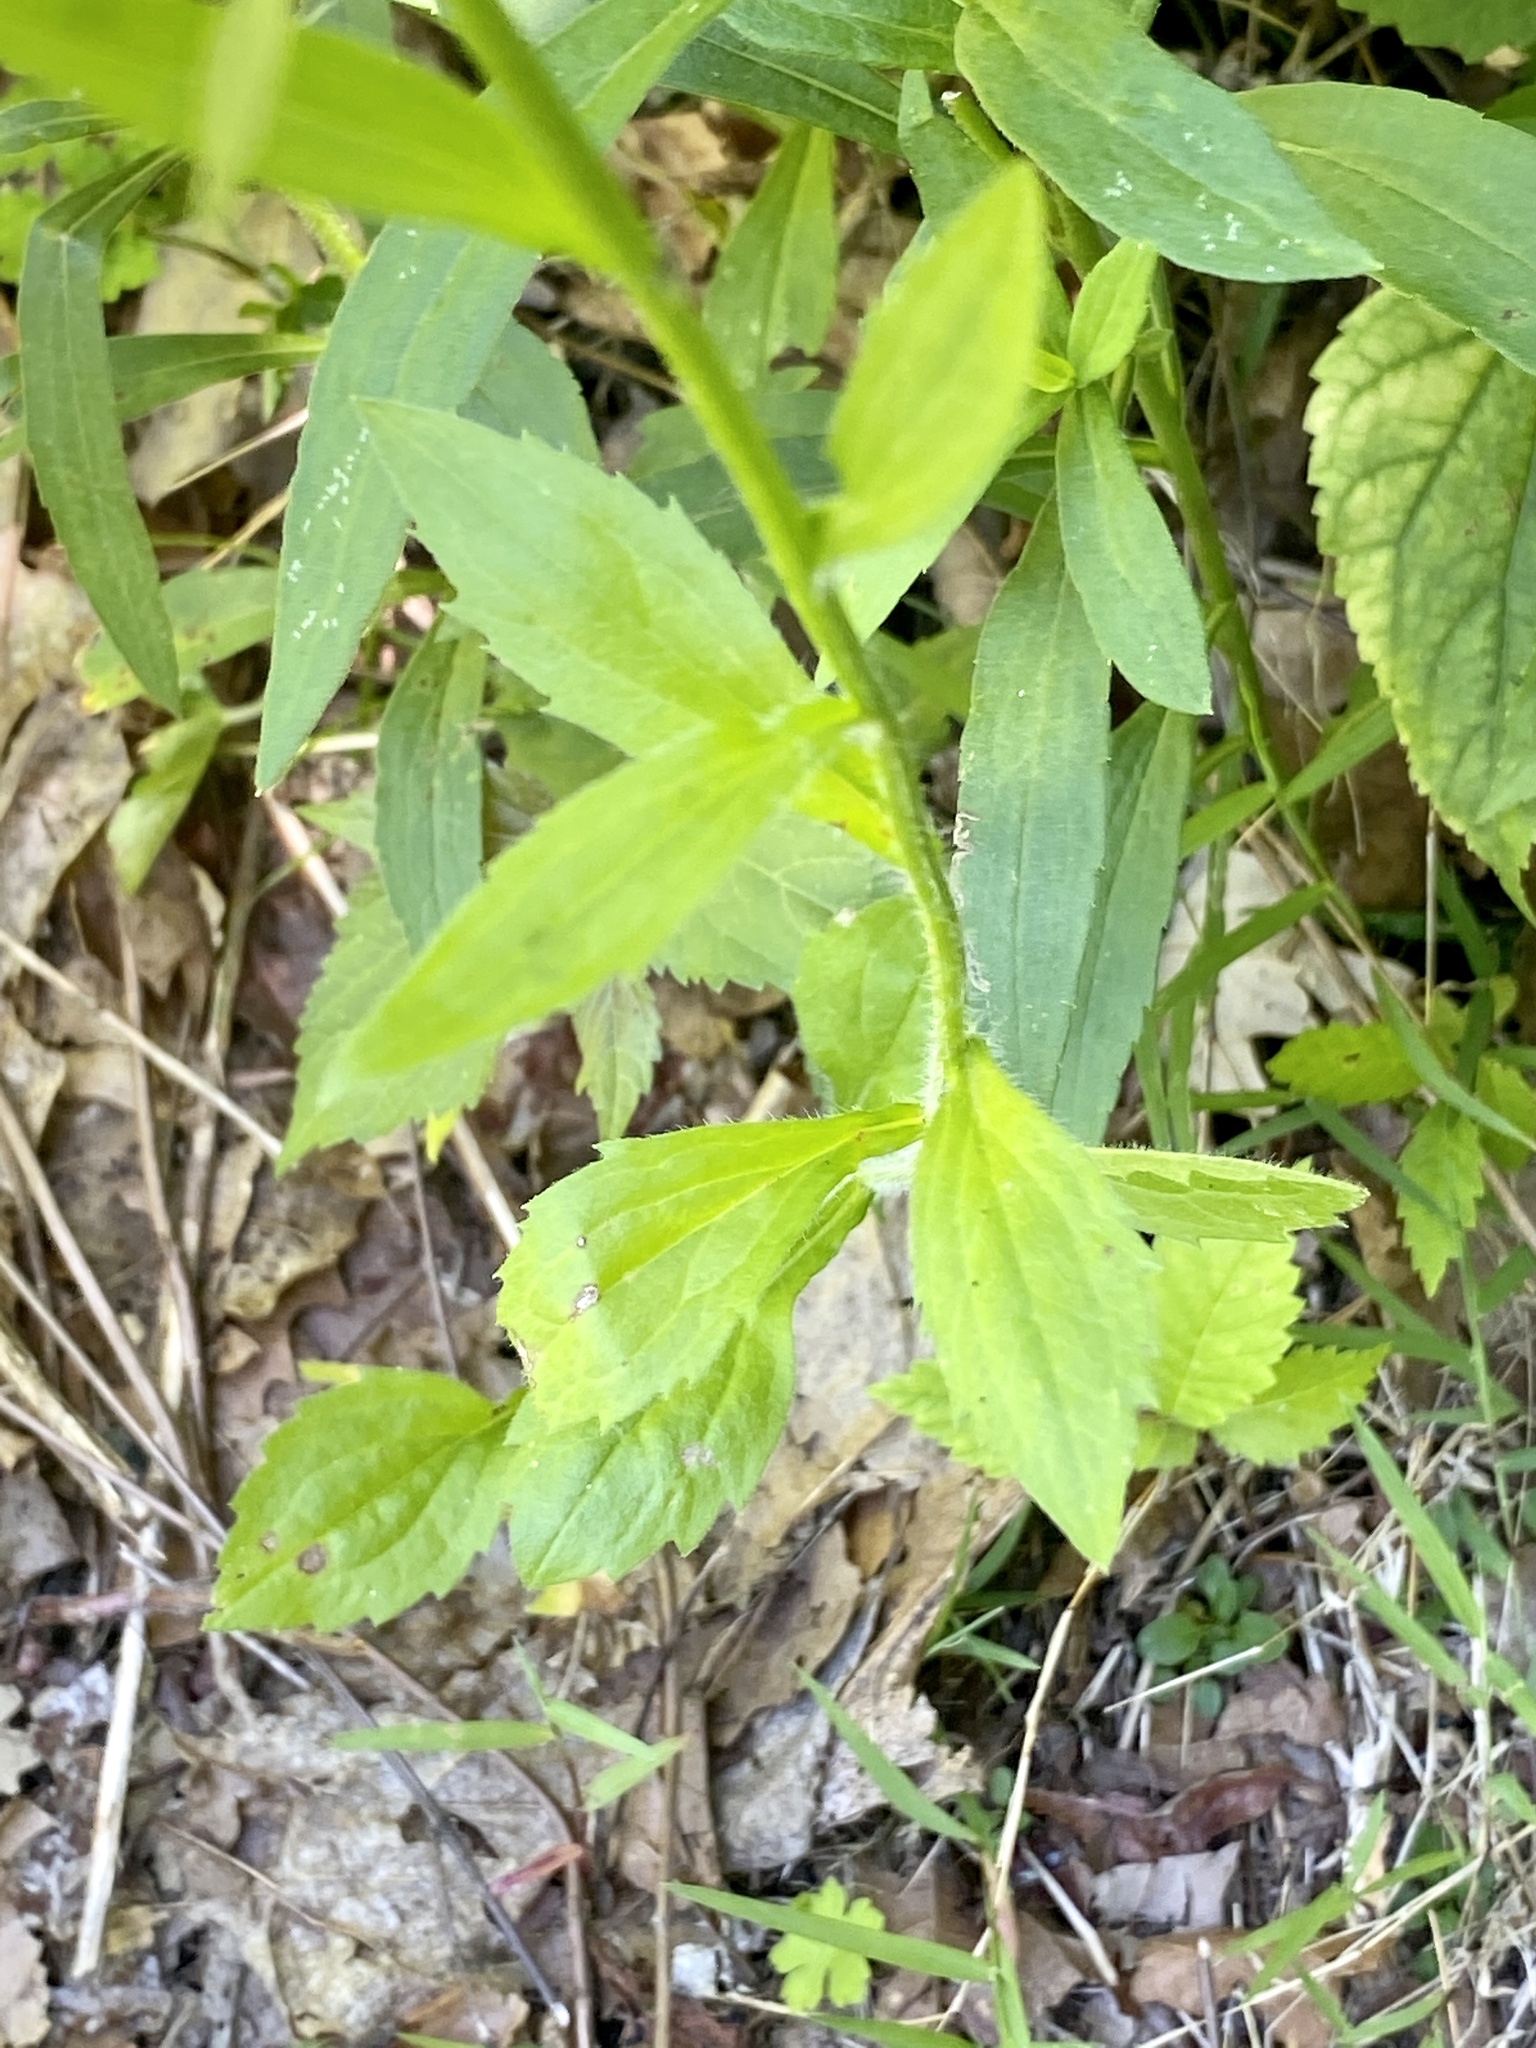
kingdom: Plantae
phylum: Tracheophyta
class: Magnoliopsida
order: Asterales
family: Asteraceae
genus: Erigeron
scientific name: Erigeron annuus
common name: Tall fleabane
